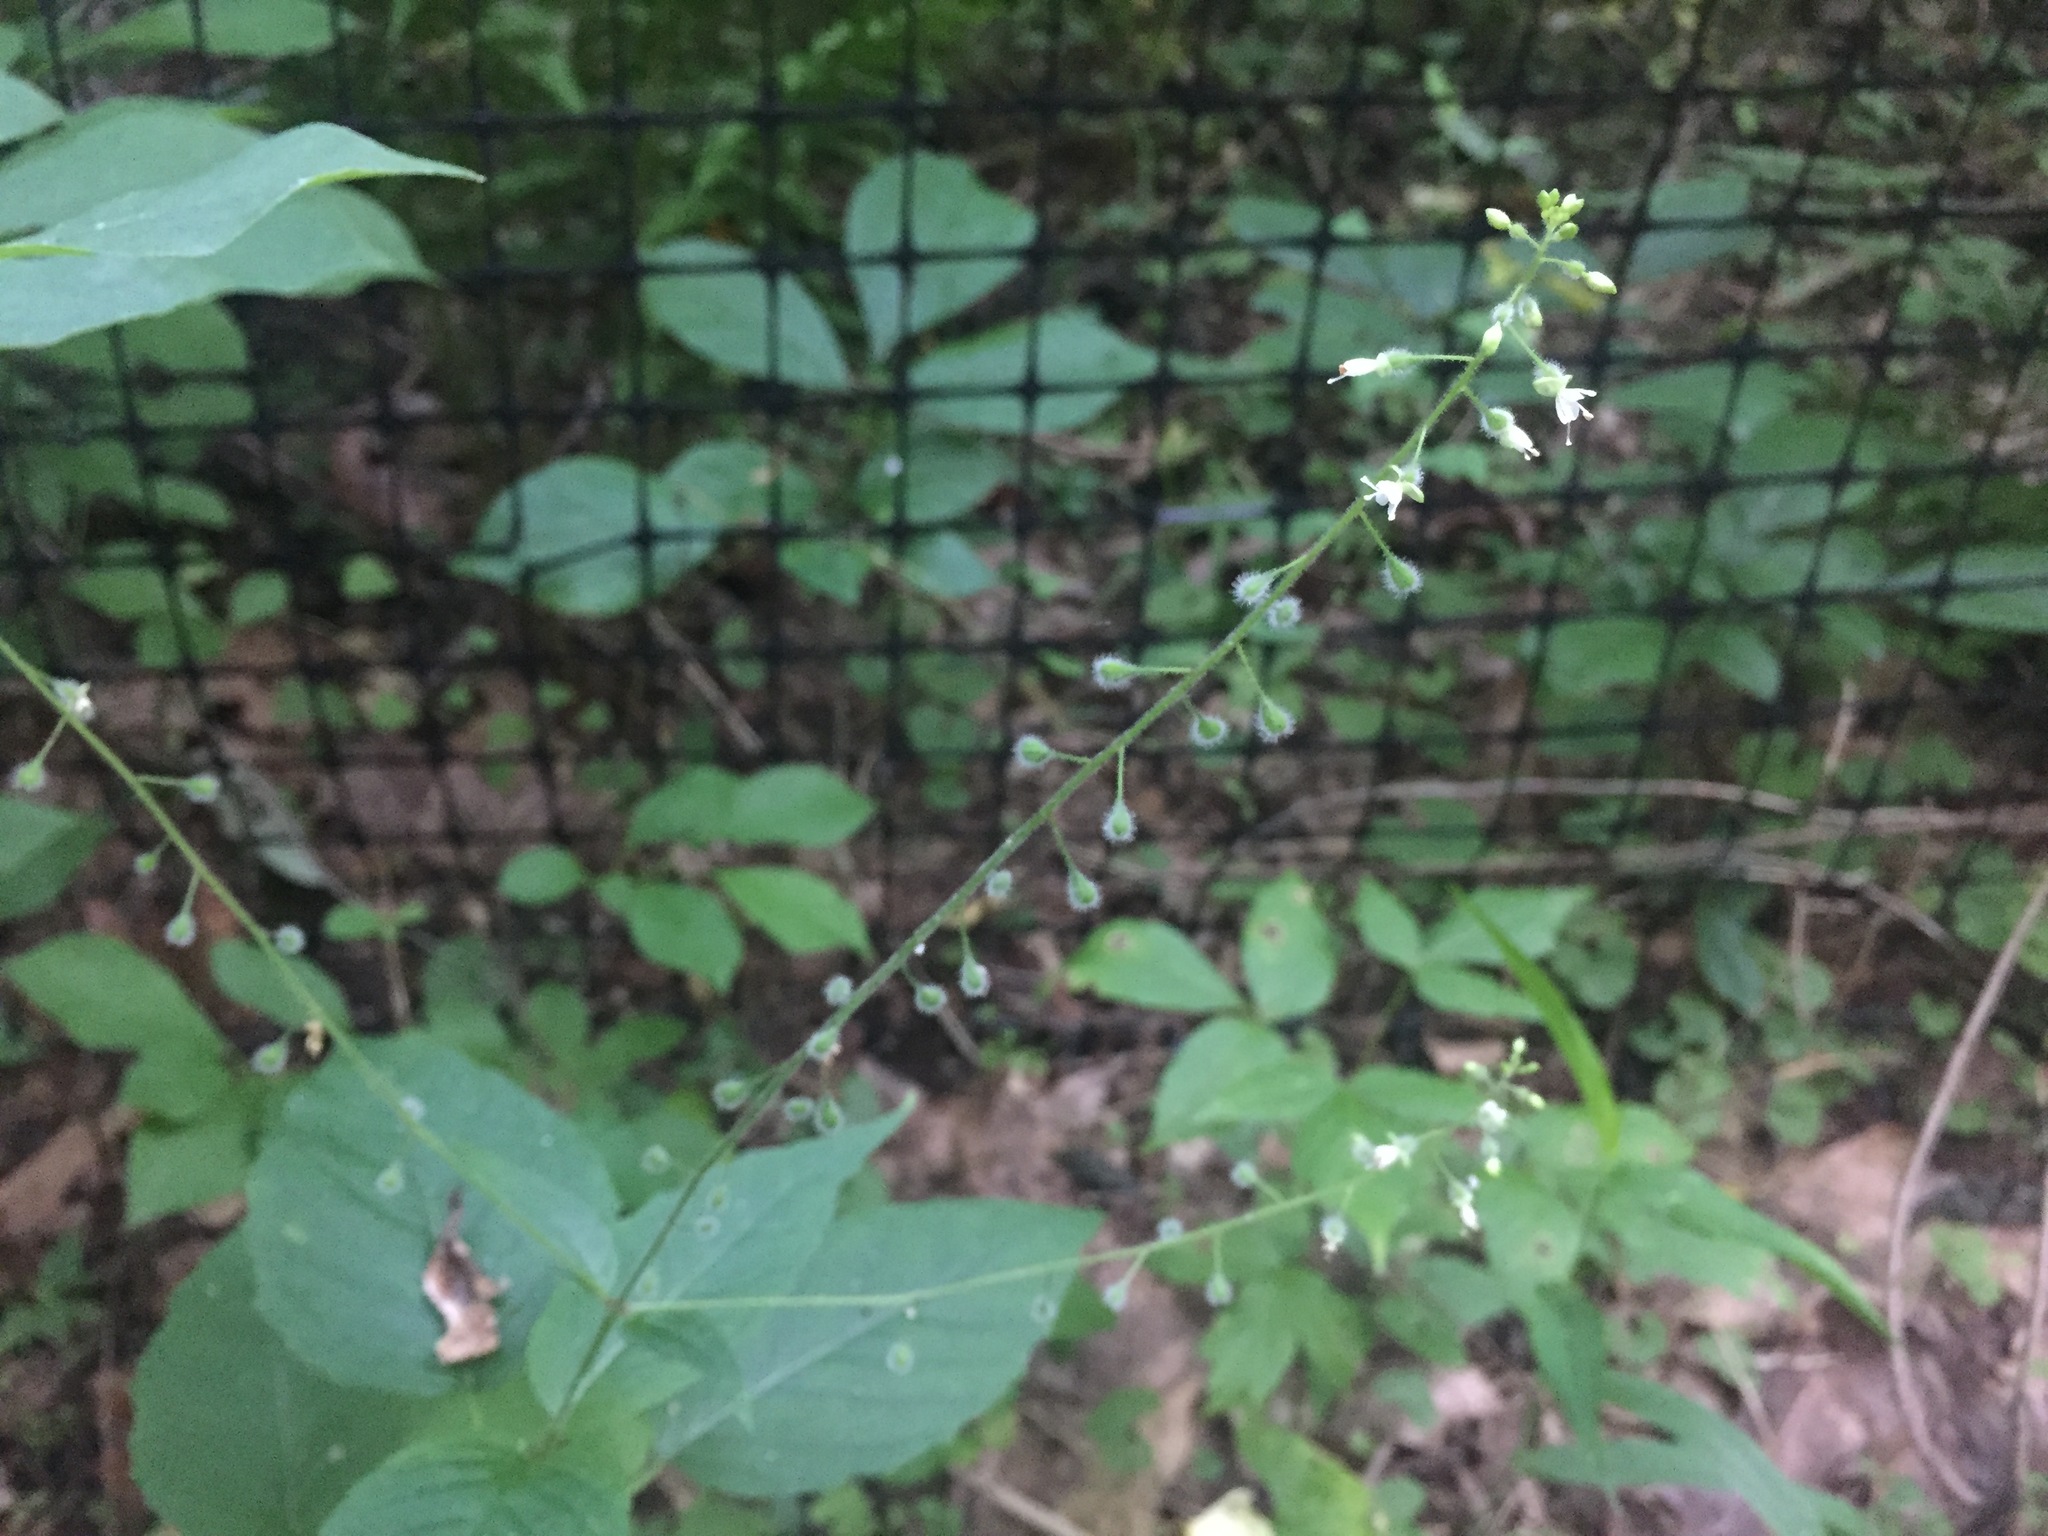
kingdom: Plantae
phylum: Tracheophyta
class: Magnoliopsida
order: Myrtales
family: Onagraceae
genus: Circaea
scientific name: Circaea canadensis
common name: Broad-leaved enchanter's nightshade
